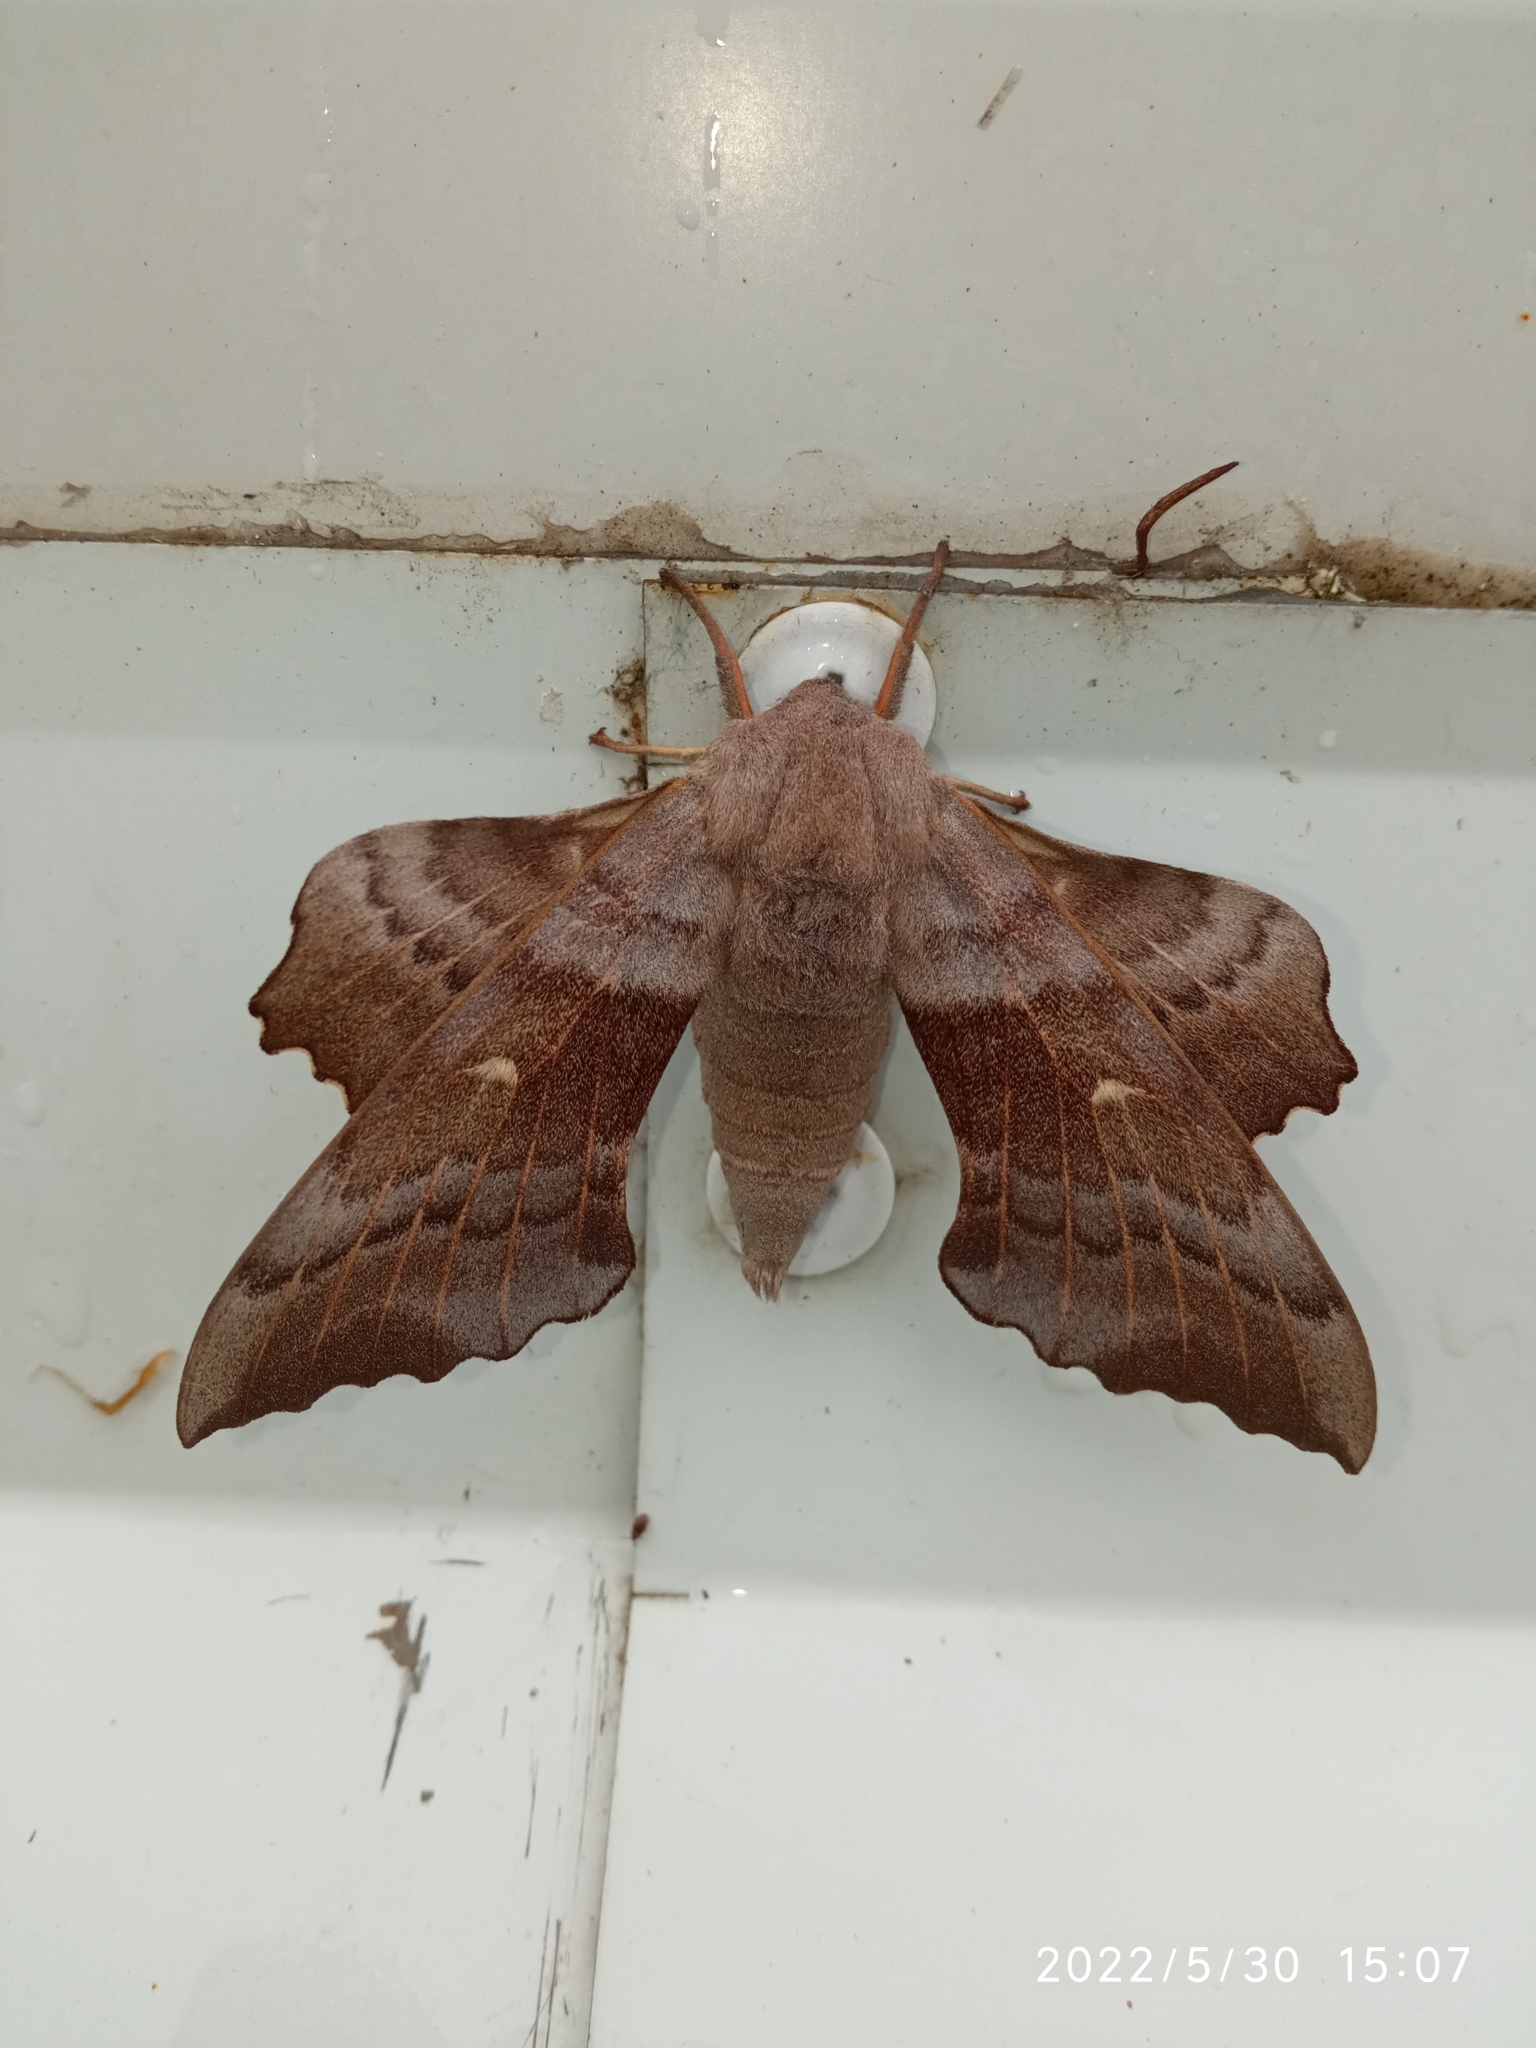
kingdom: Animalia
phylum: Arthropoda
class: Insecta
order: Lepidoptera
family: Sphingidae
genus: Laothoe
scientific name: Laothoe populi
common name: Poplar hawk-moth
